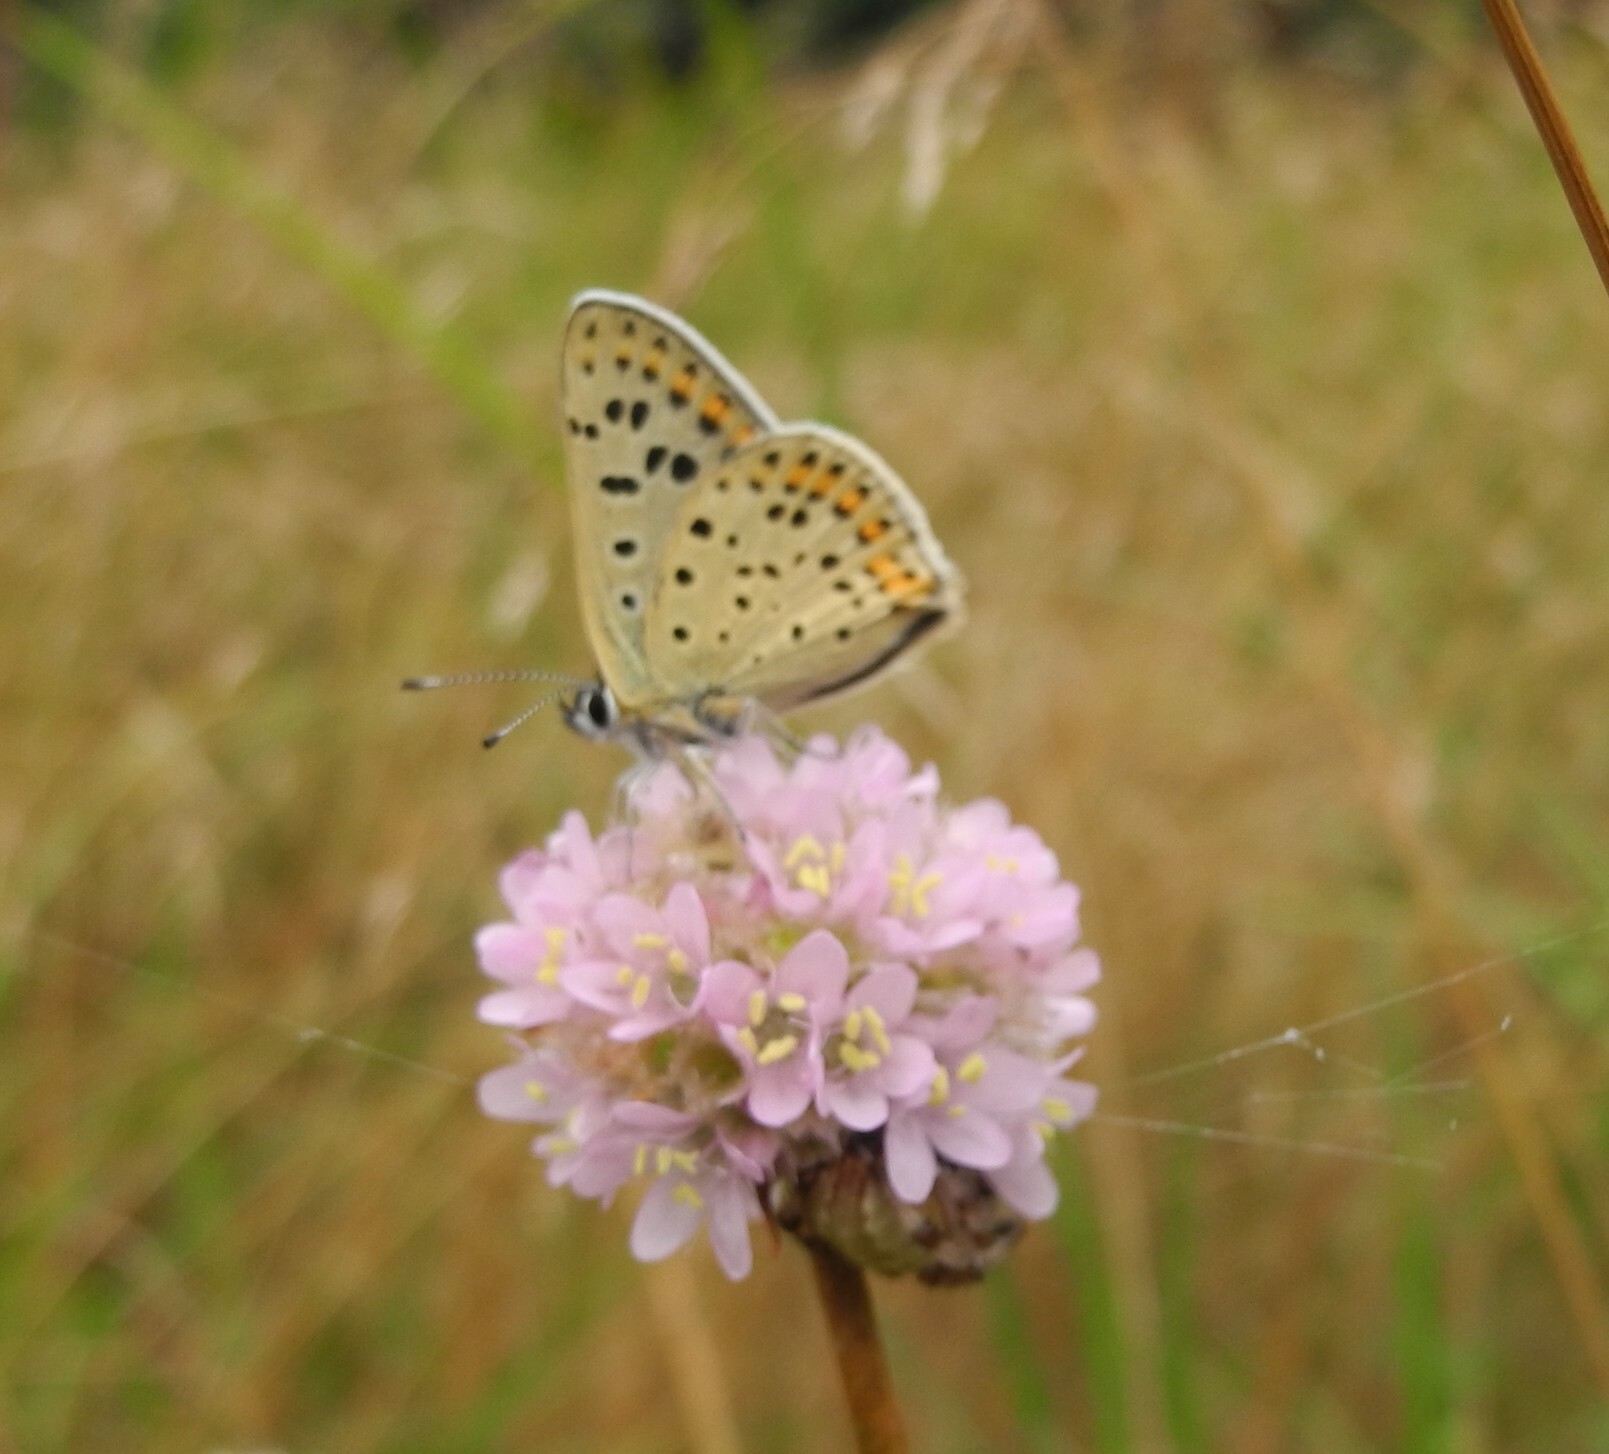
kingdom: Animalia
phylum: Arthropoda
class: Insecta
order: Lepidoptera
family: Lycaenidae
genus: Loweia
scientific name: Loweia tityrus
